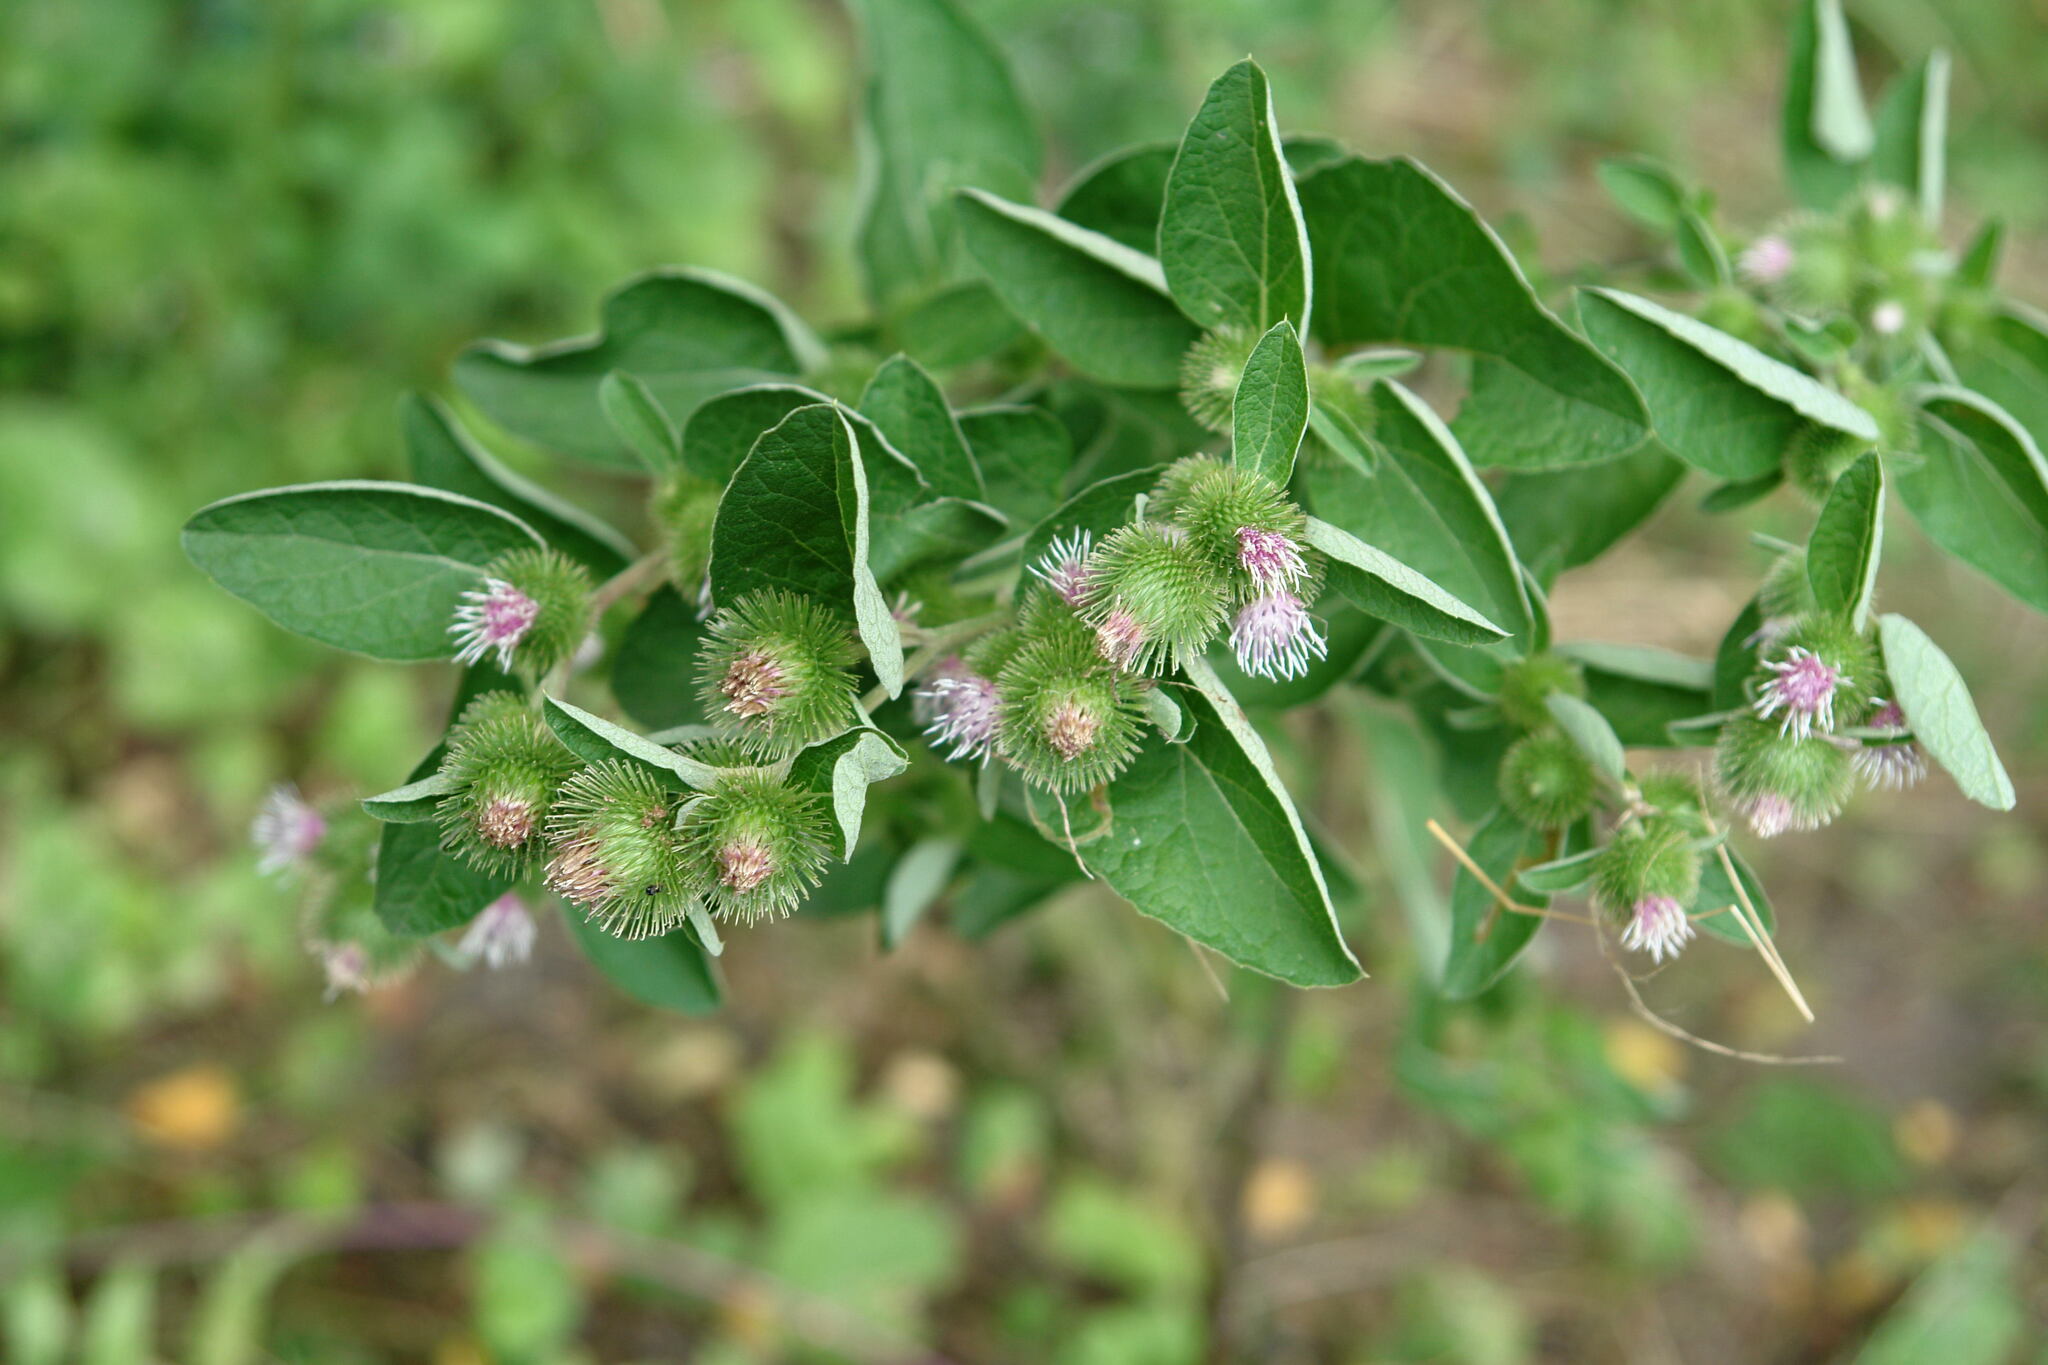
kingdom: Plantae
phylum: Tracheophyta
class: Magnoliopsida
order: Asterales
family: Asteraceae
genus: Arctium
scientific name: Arctium minus
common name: Lesser burdock
